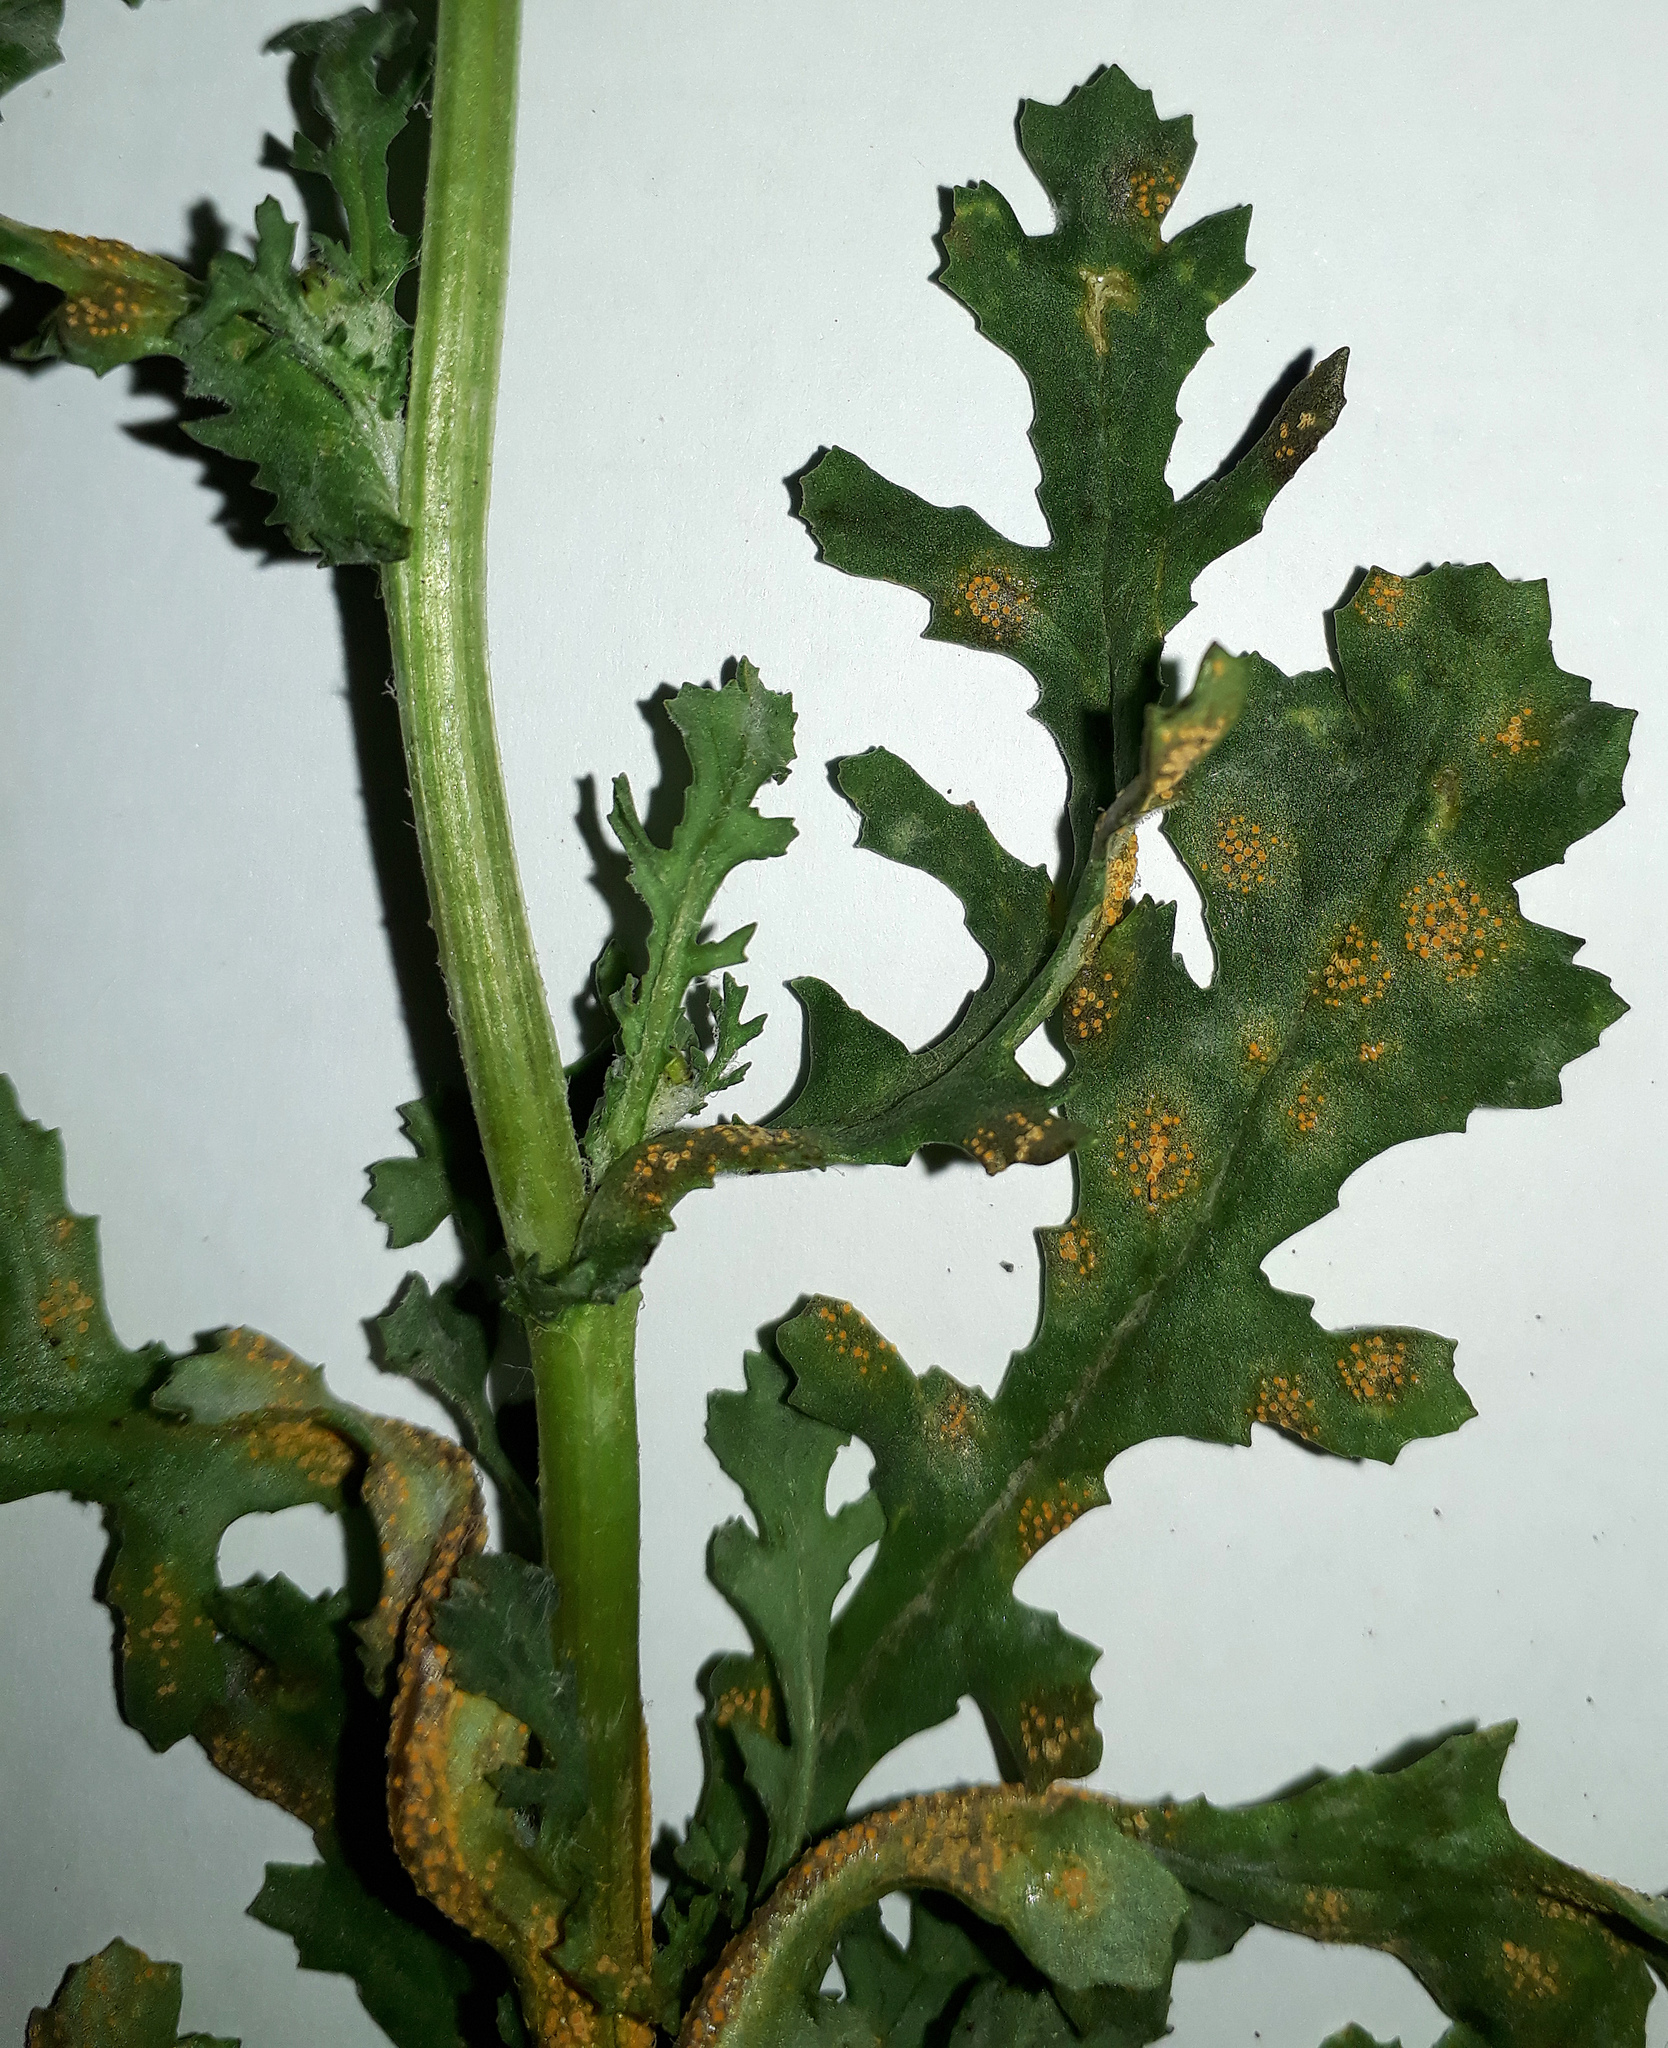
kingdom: Fungi
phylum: Basidiomycota
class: Pucciniomycetes
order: Pucciniales
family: Pucciniaceae
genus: Puccinia
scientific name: Puccinia lagenophorae
